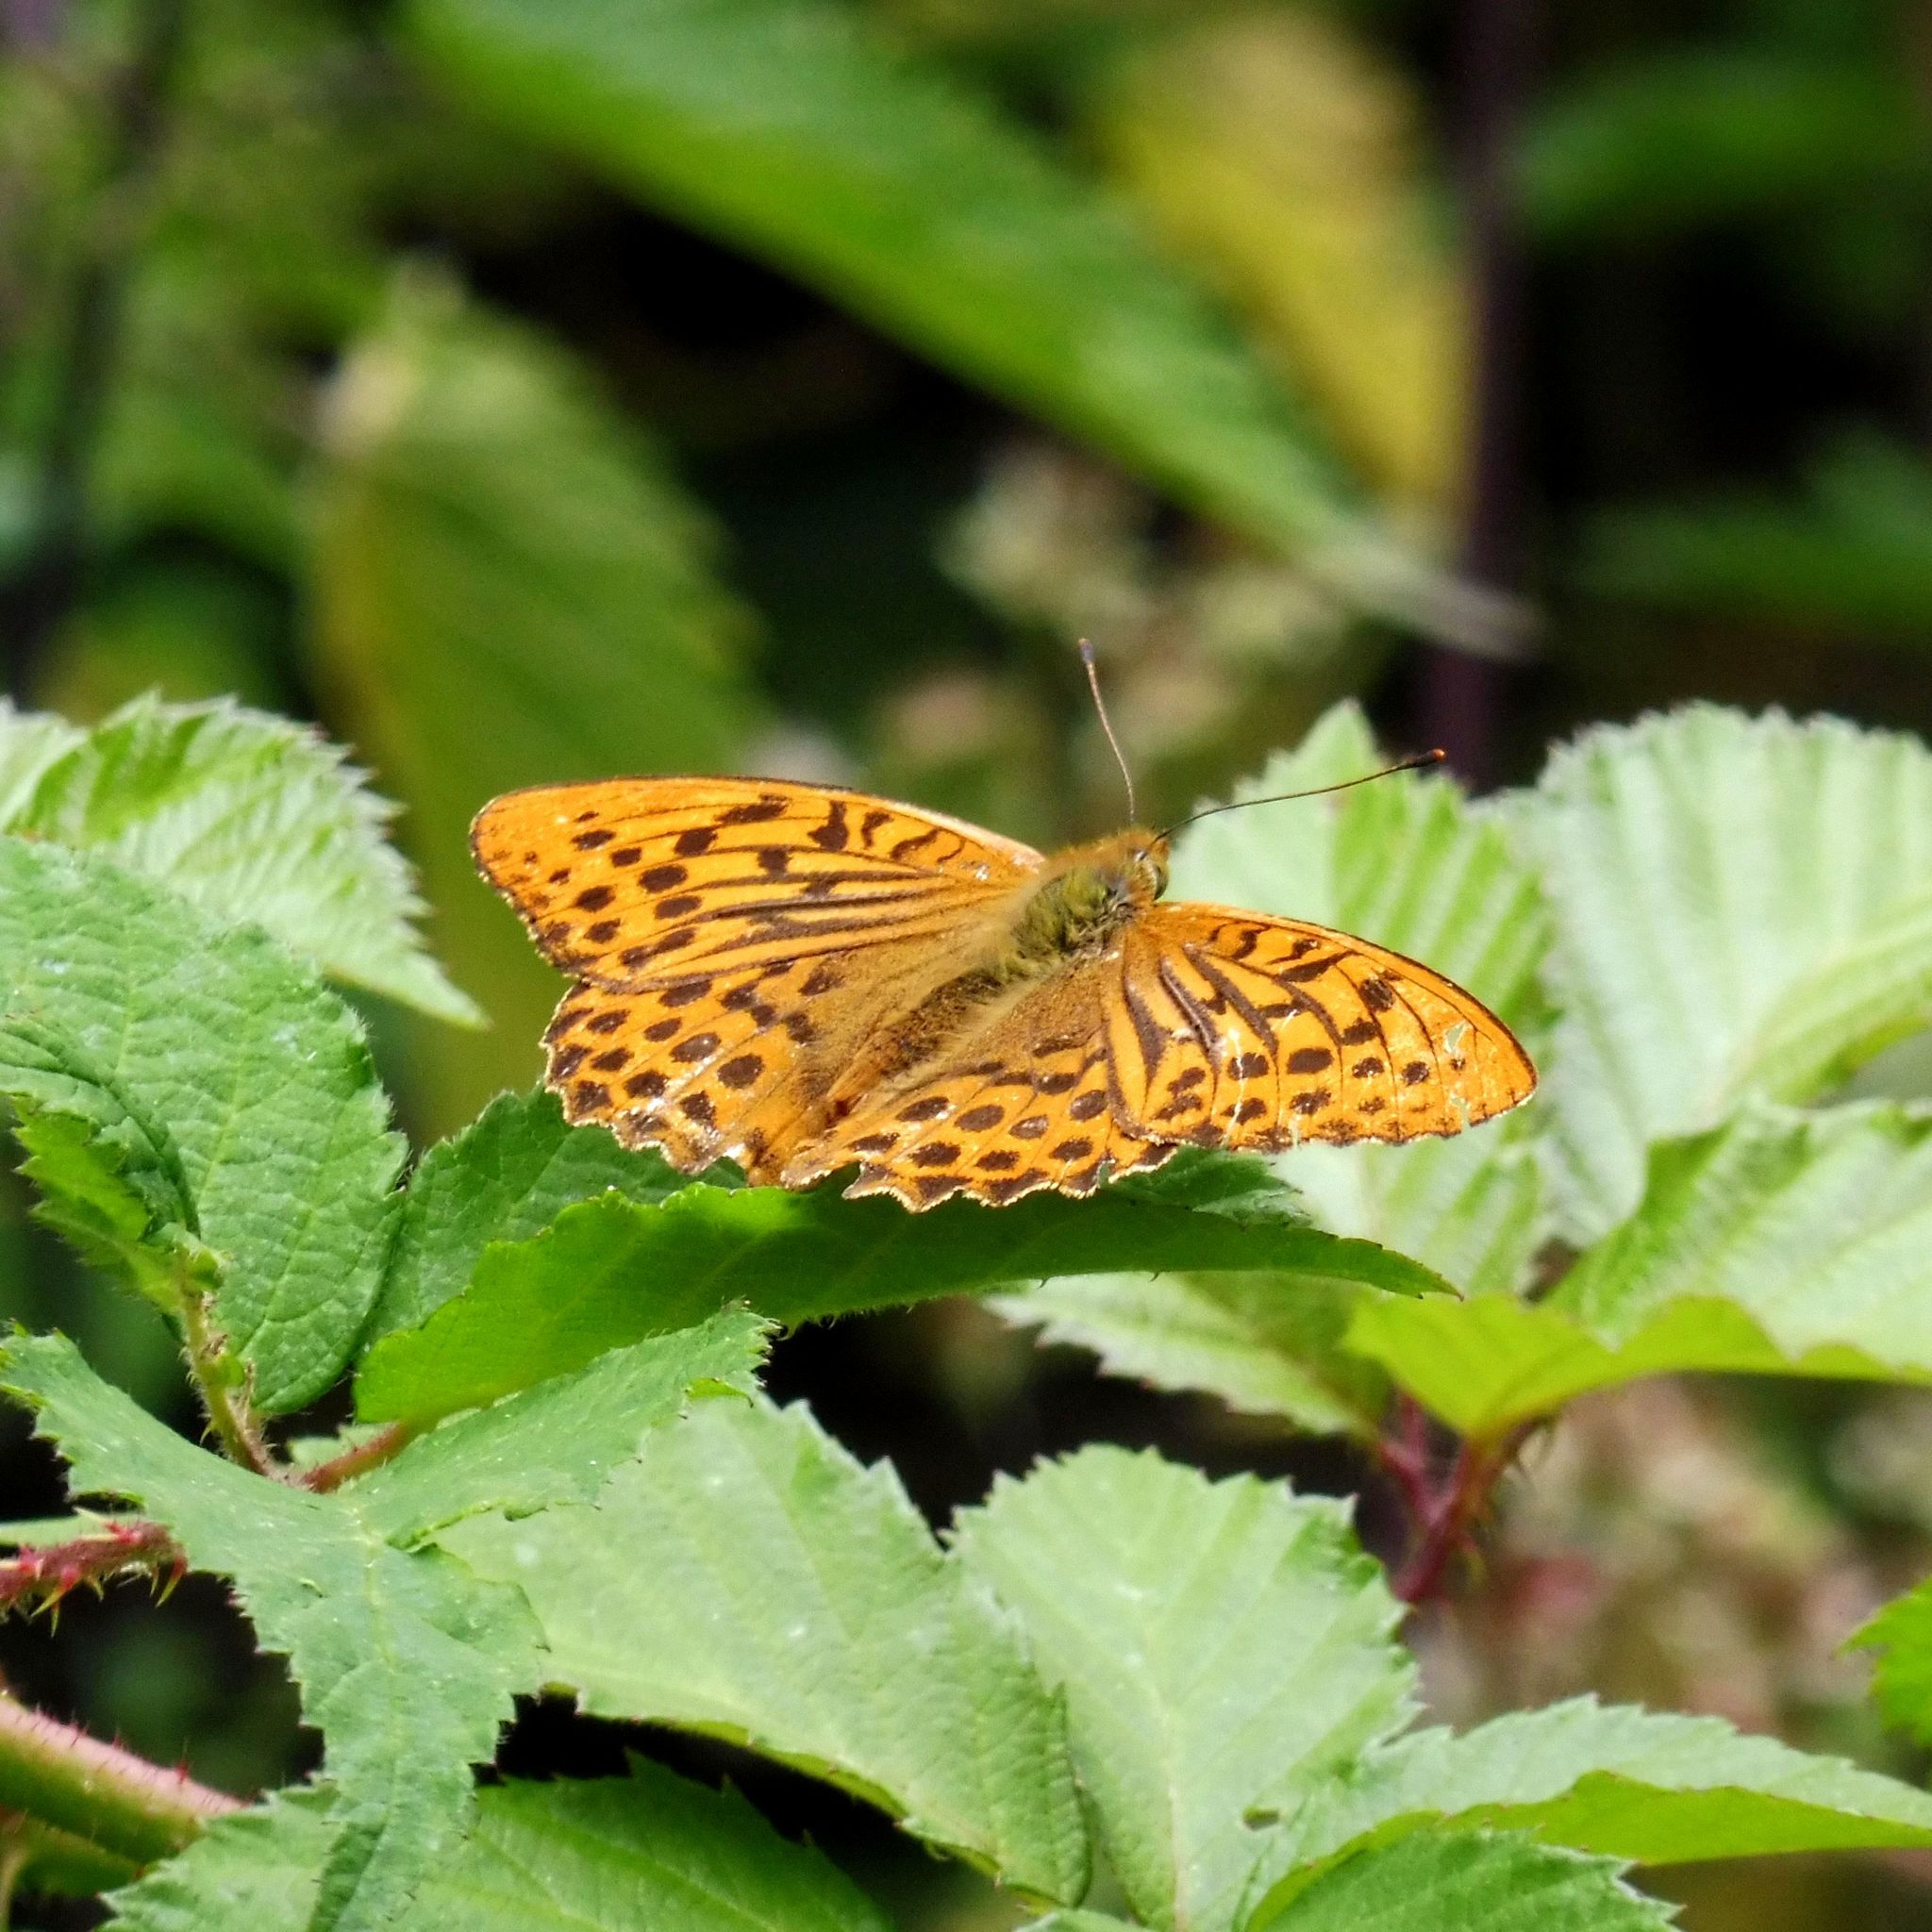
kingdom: Animalia
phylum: Arthropoda
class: Insecta
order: Lepidoptera
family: Nymphalidae
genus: Argynnis
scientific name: Argynnis paphia
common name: Silver-washed fritillary
